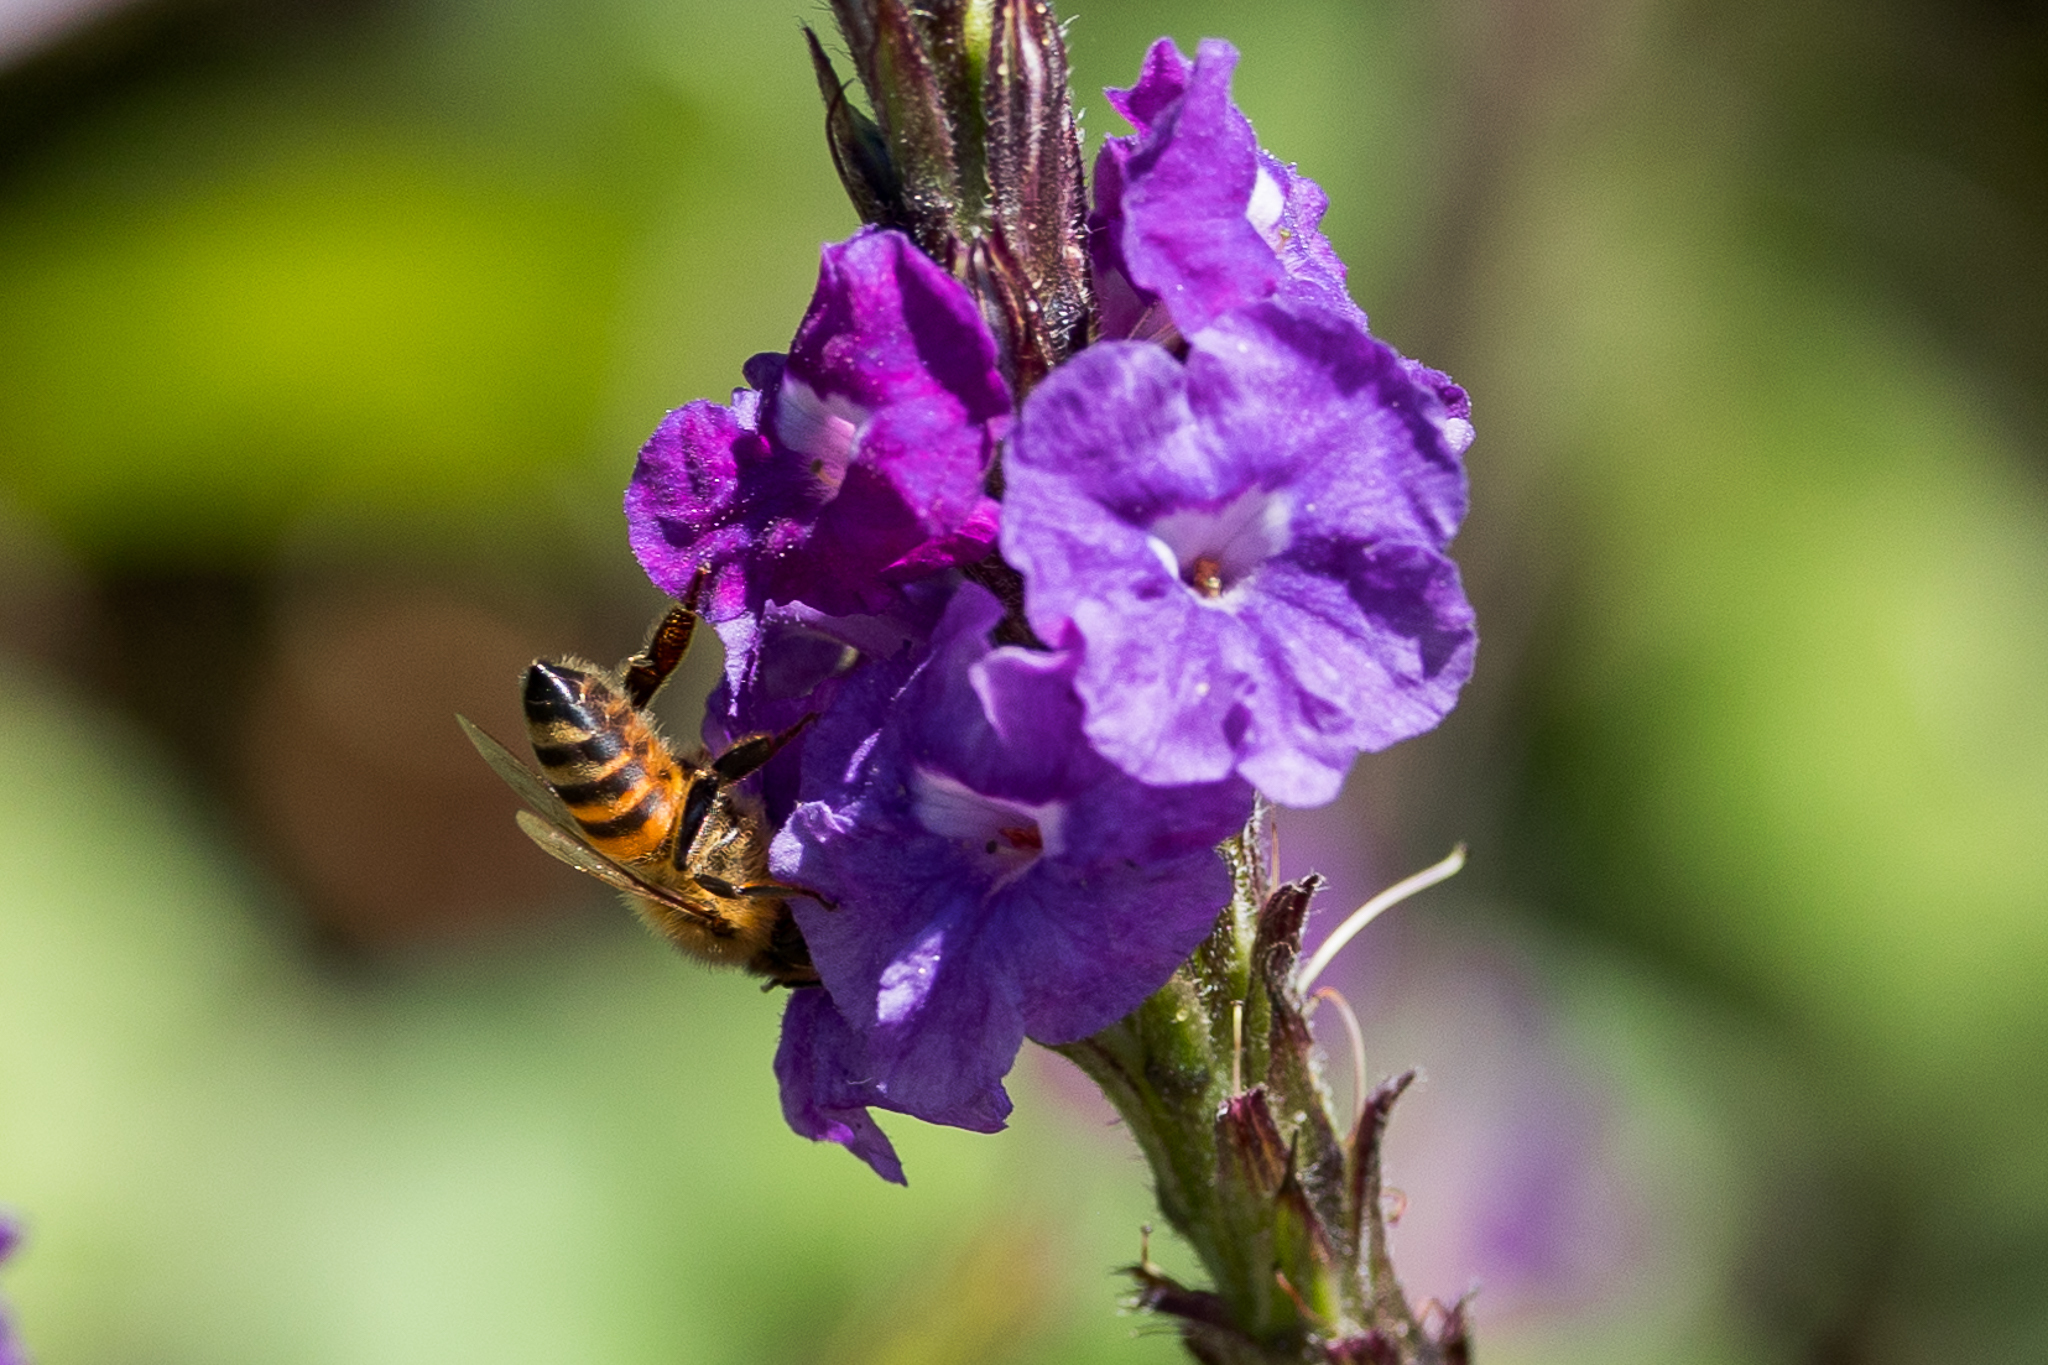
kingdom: Animalia
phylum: Arthropoda
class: Insecta
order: Hymenoptera
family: Apidae
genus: Apis
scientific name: Apis mellifera
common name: Honey bee
